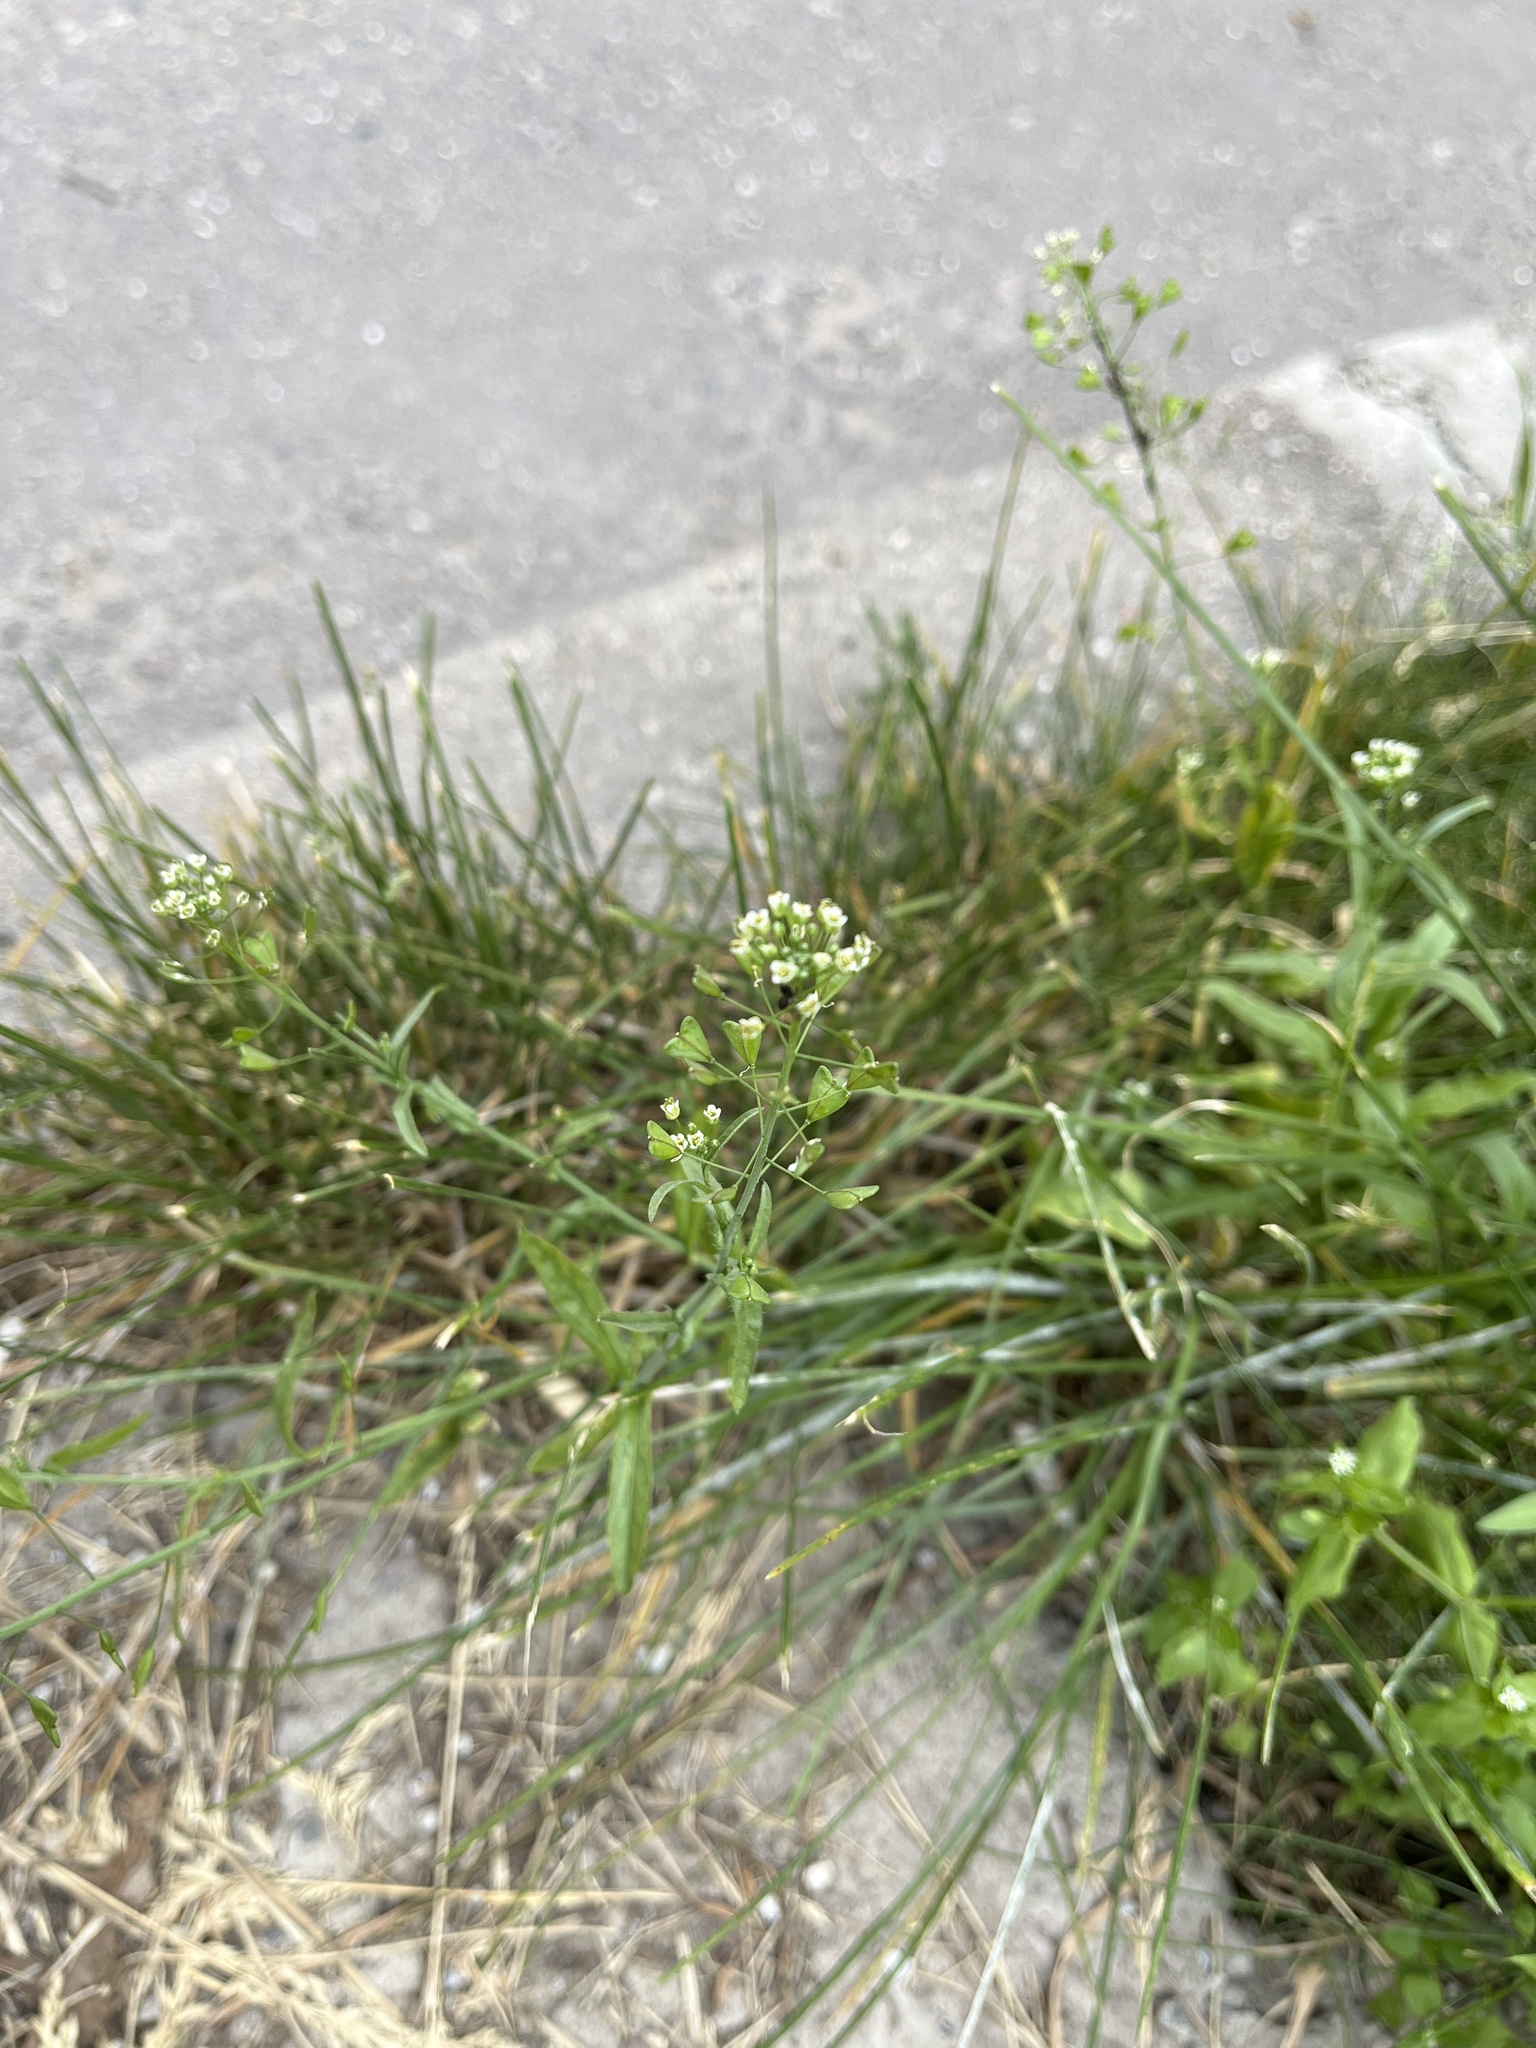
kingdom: Plantae
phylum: Tracheophyta
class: Magnoliopsida
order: Brassicales
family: Brassicaceae
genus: Capsella
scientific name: Capsella bursa-pastoris
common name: Shepherd's purse
